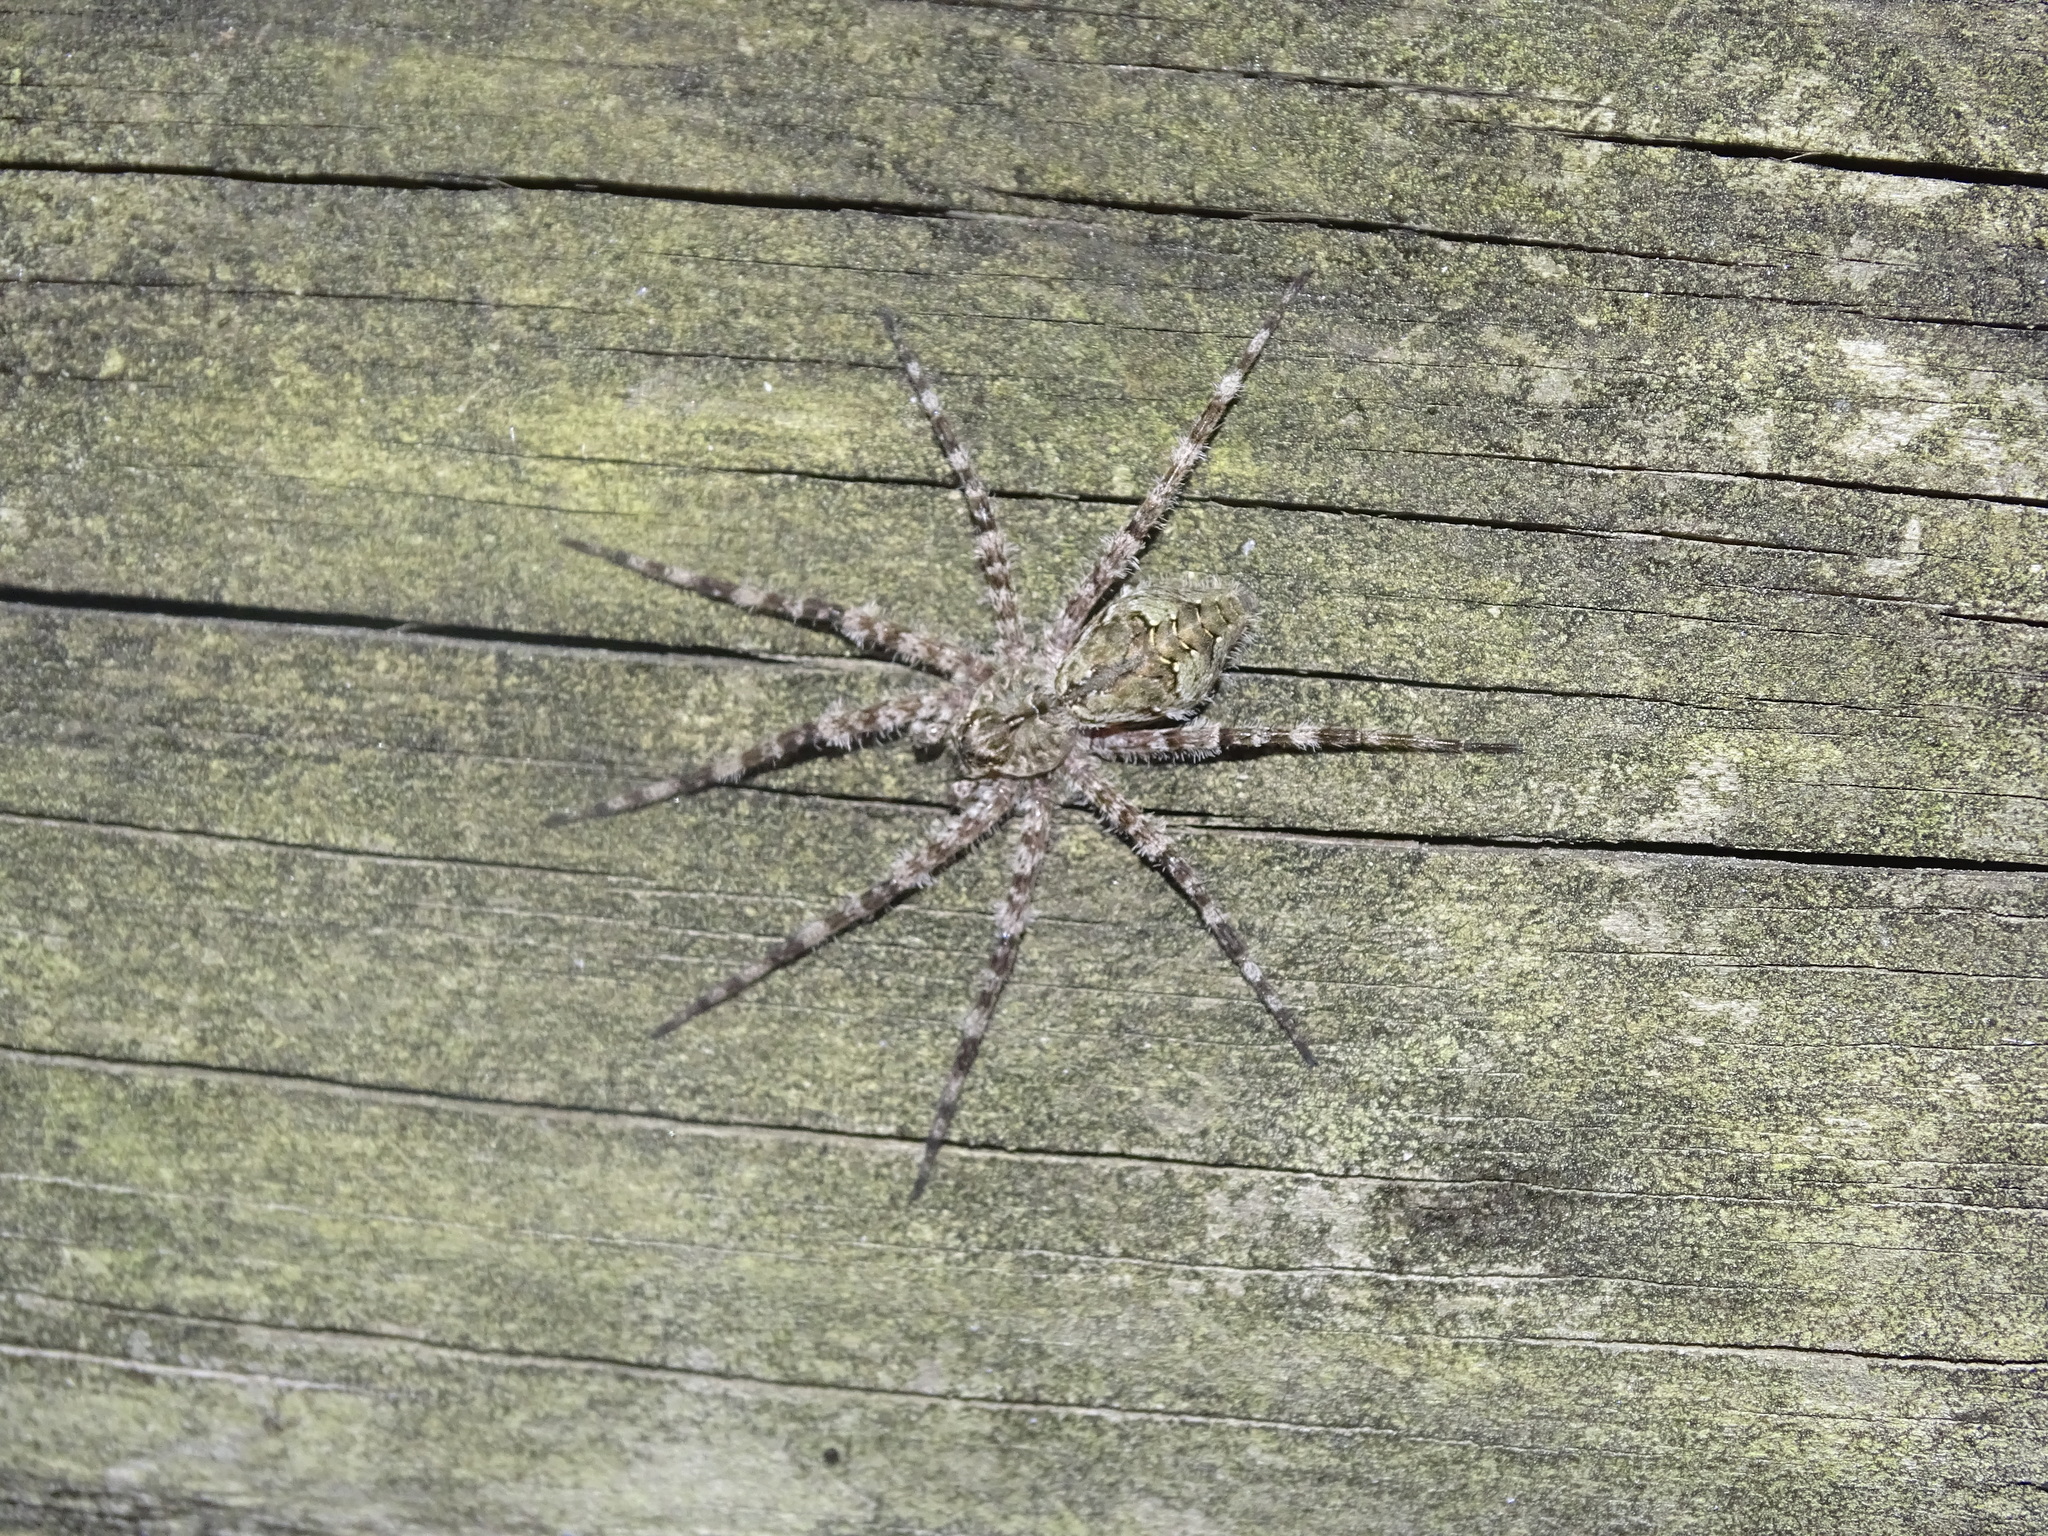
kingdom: Animalia
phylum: Arthropoda
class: Arachnida
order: Araneae
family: Pisauridae
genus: Dolomedes
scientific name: Dolomedes albineus
